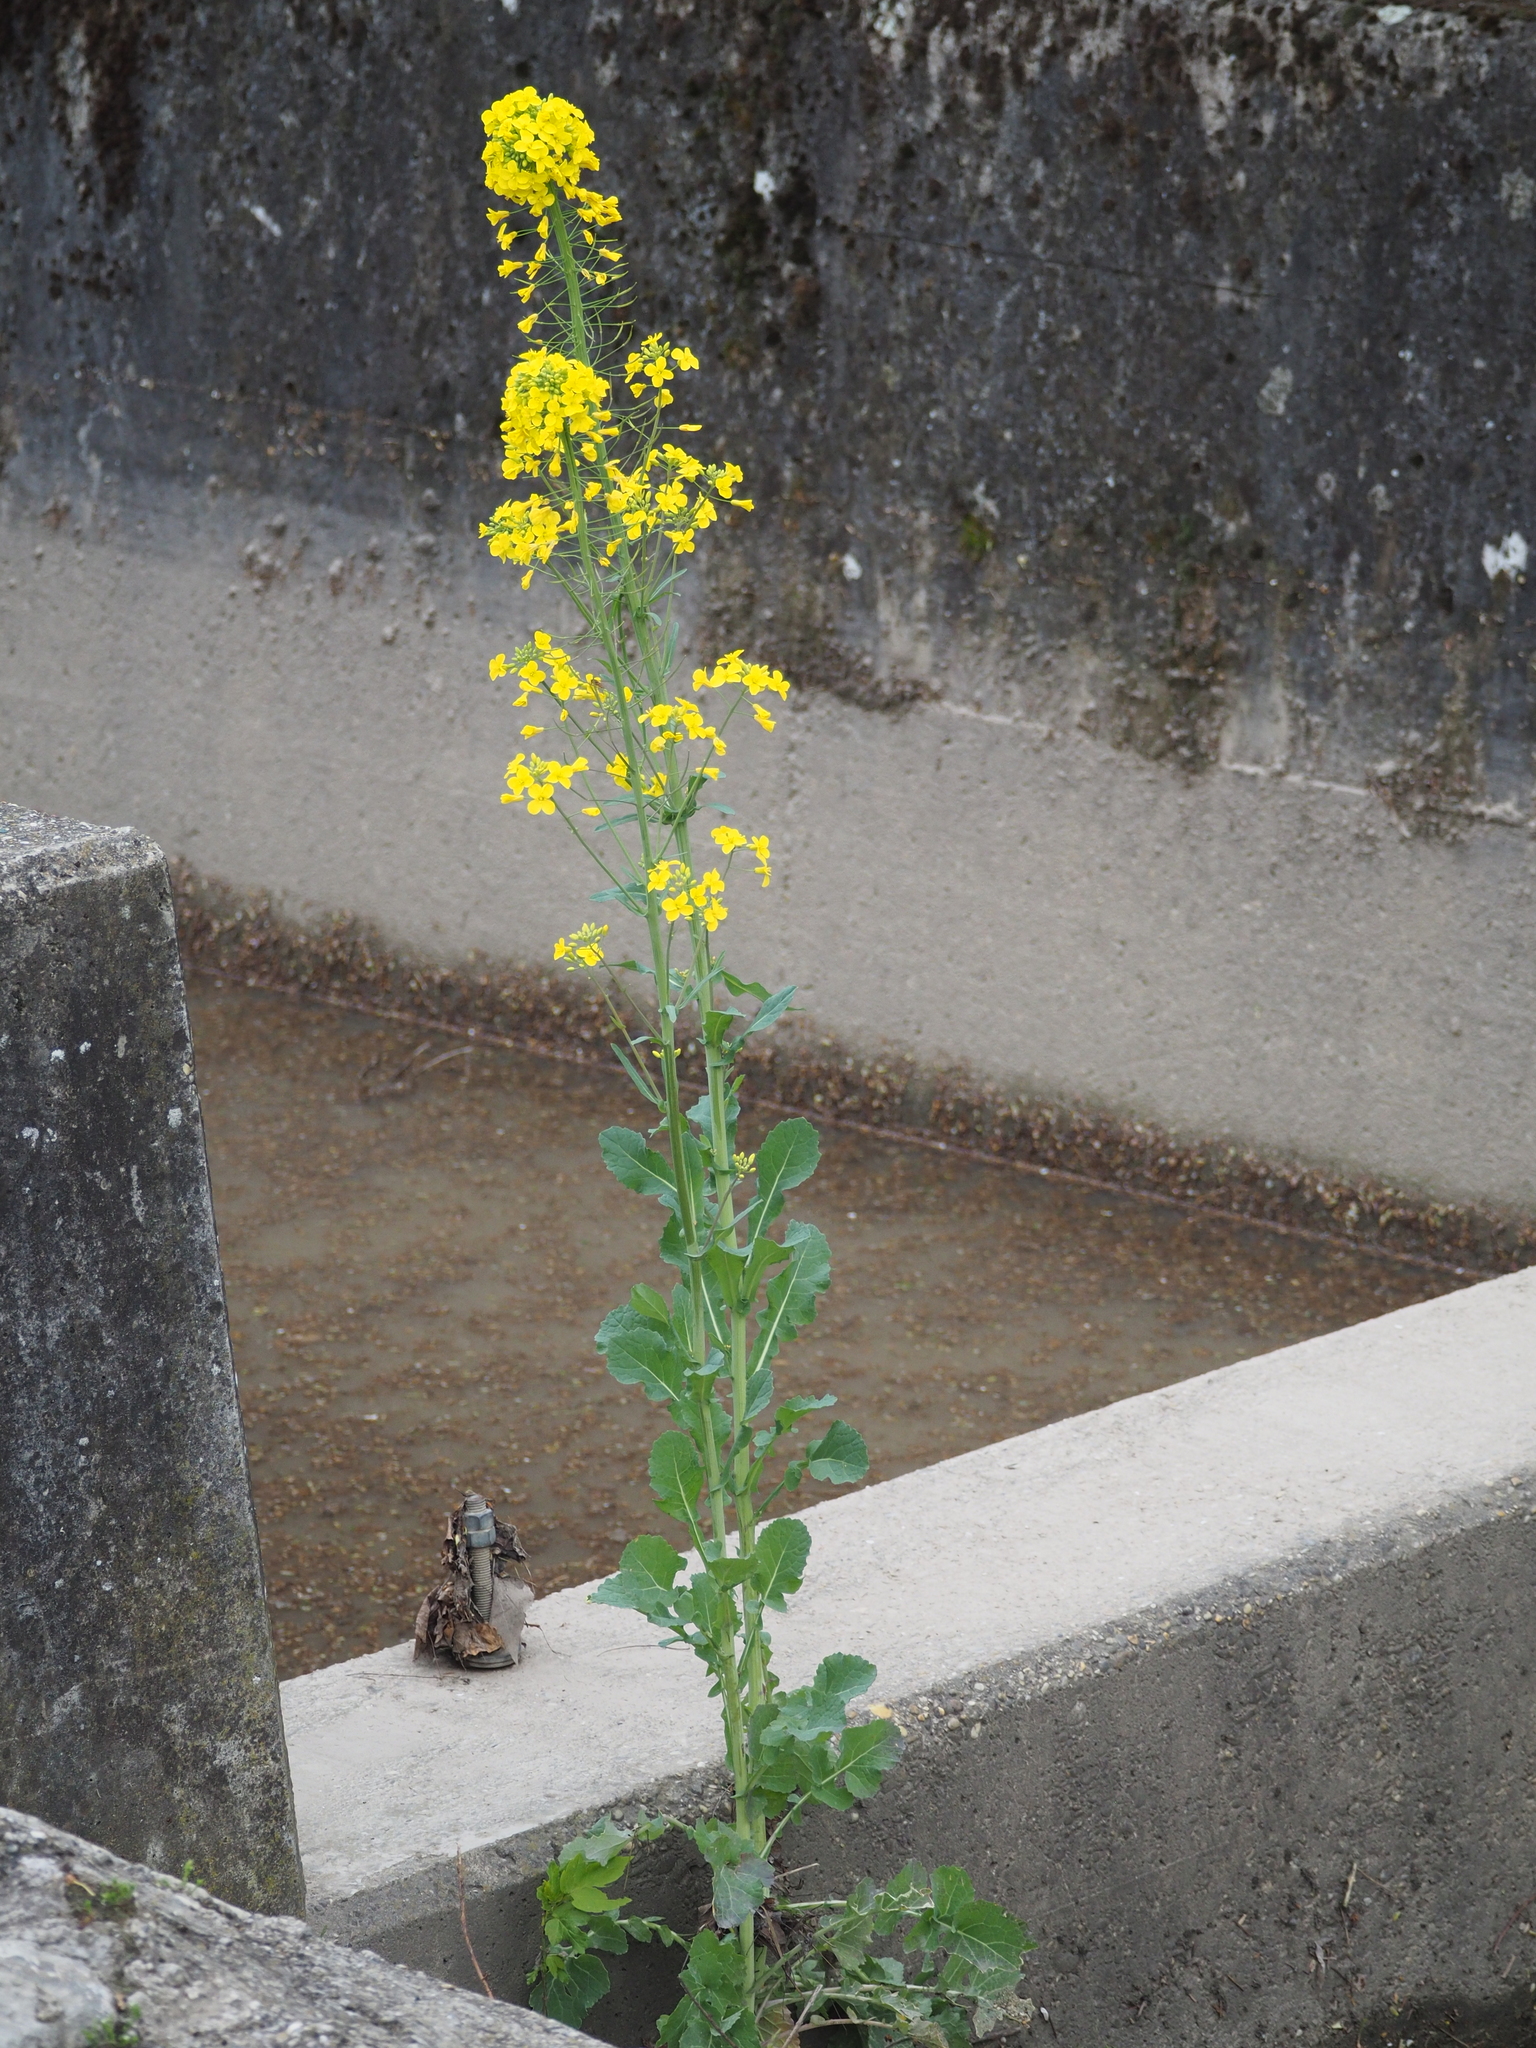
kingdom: Plantae
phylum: Tracheophyta
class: Magnoliopsida
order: Brassicales
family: Brassicaceae
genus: Brassica
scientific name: Brassica napus
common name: Rape
